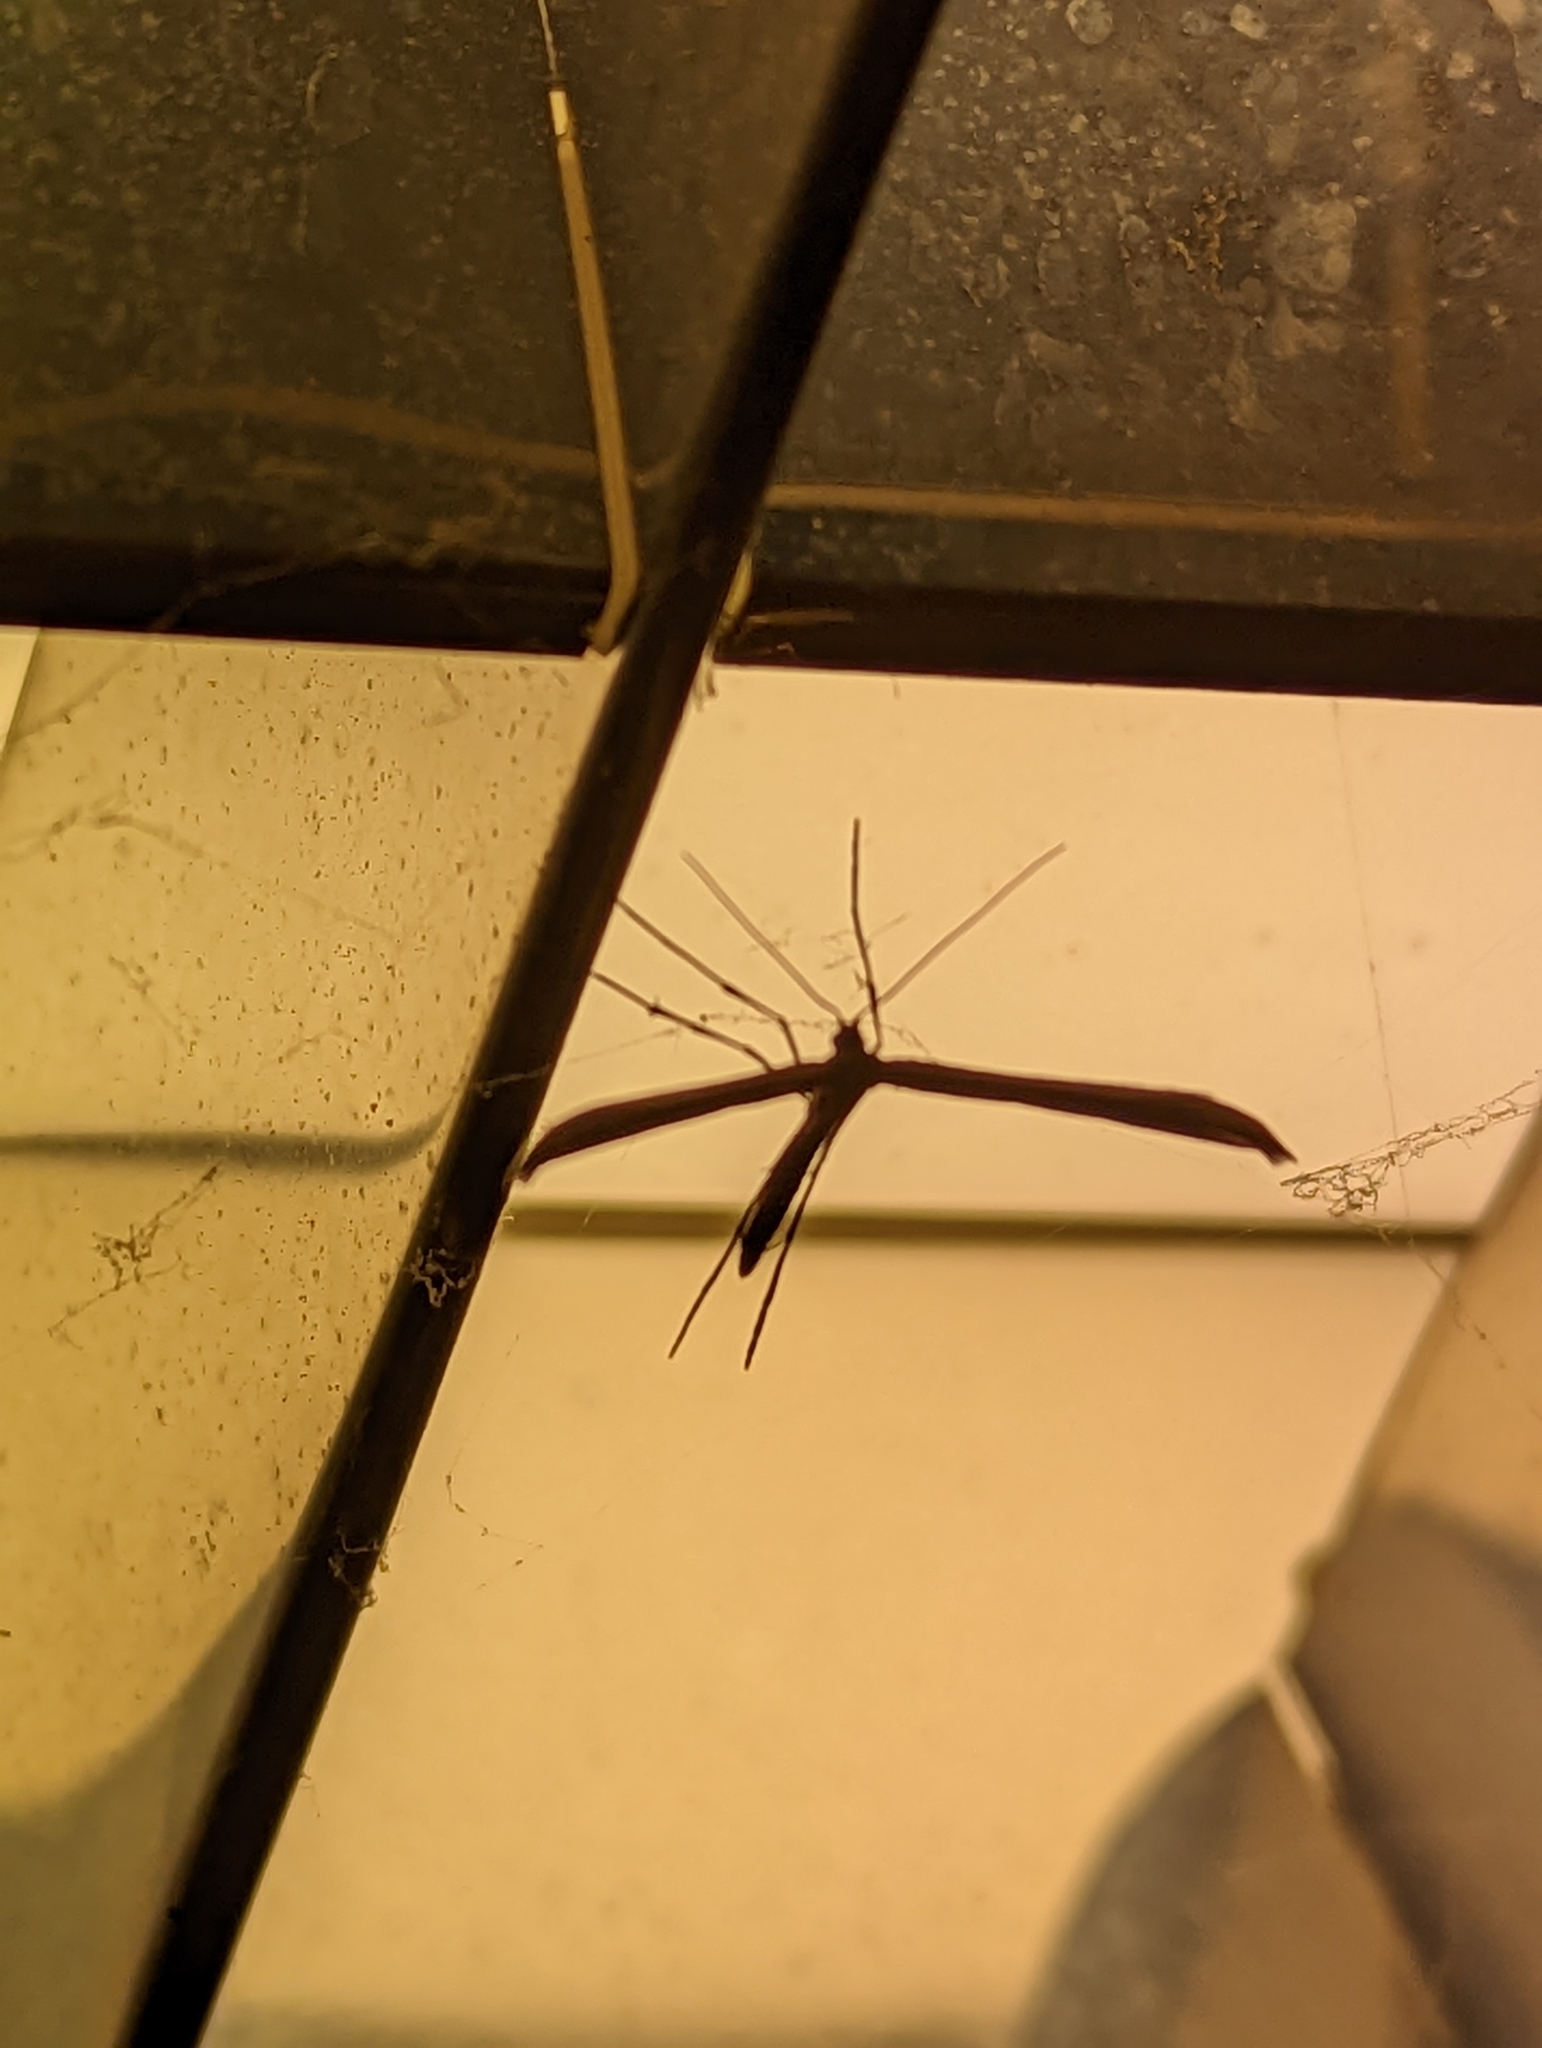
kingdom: Animalia
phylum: Arthropoda
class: Insecta
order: Lepidoptera
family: Pterophoridae
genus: Emmelina
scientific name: Emmelina monodactyla
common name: Common plume
